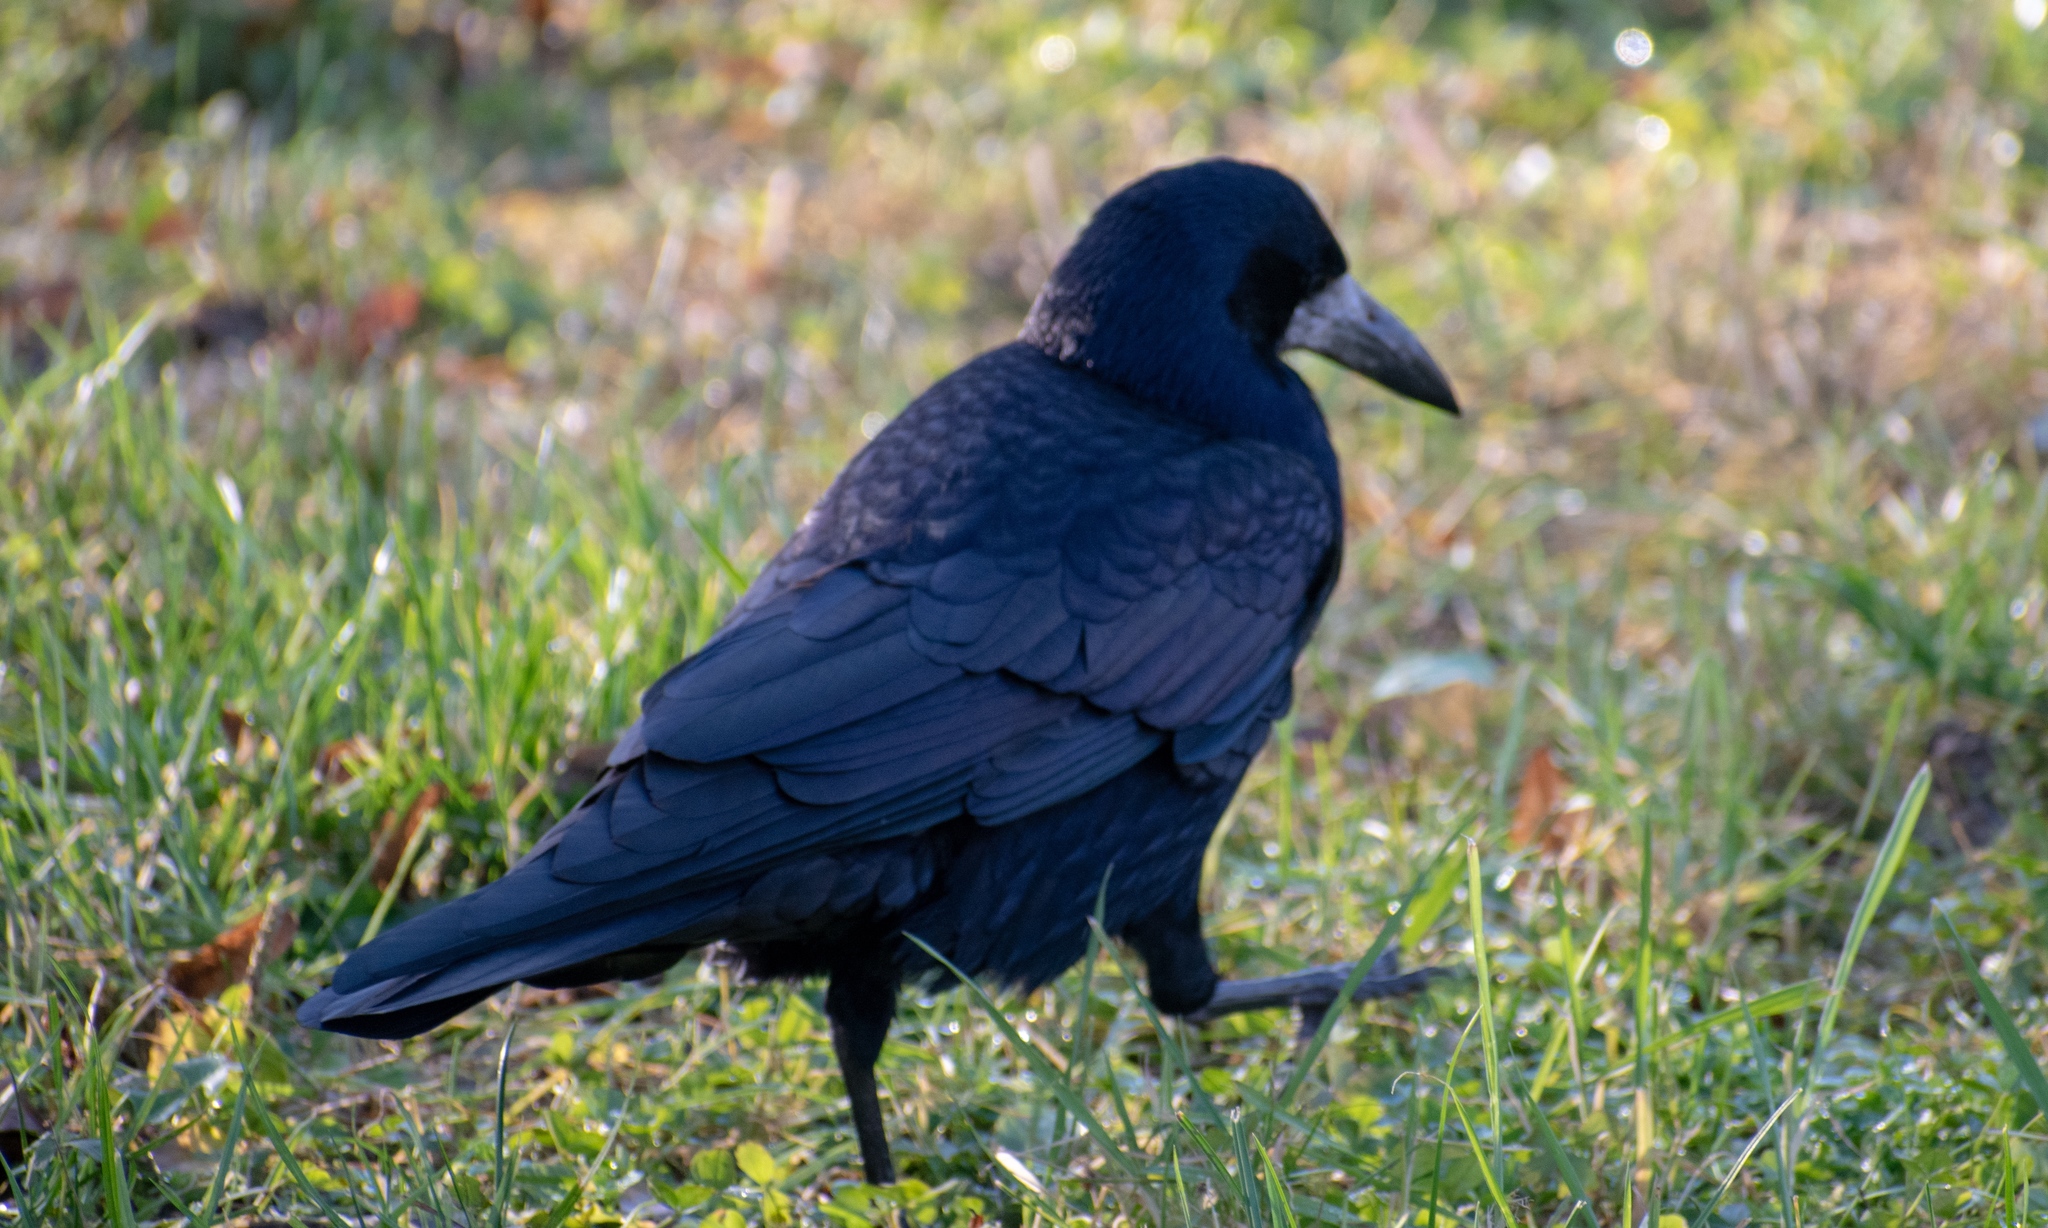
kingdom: Animalia
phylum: Chordata
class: Aves
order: Passeriformes
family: Corvidae
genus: Corvus
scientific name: Corvus frugilegus
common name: Rook
